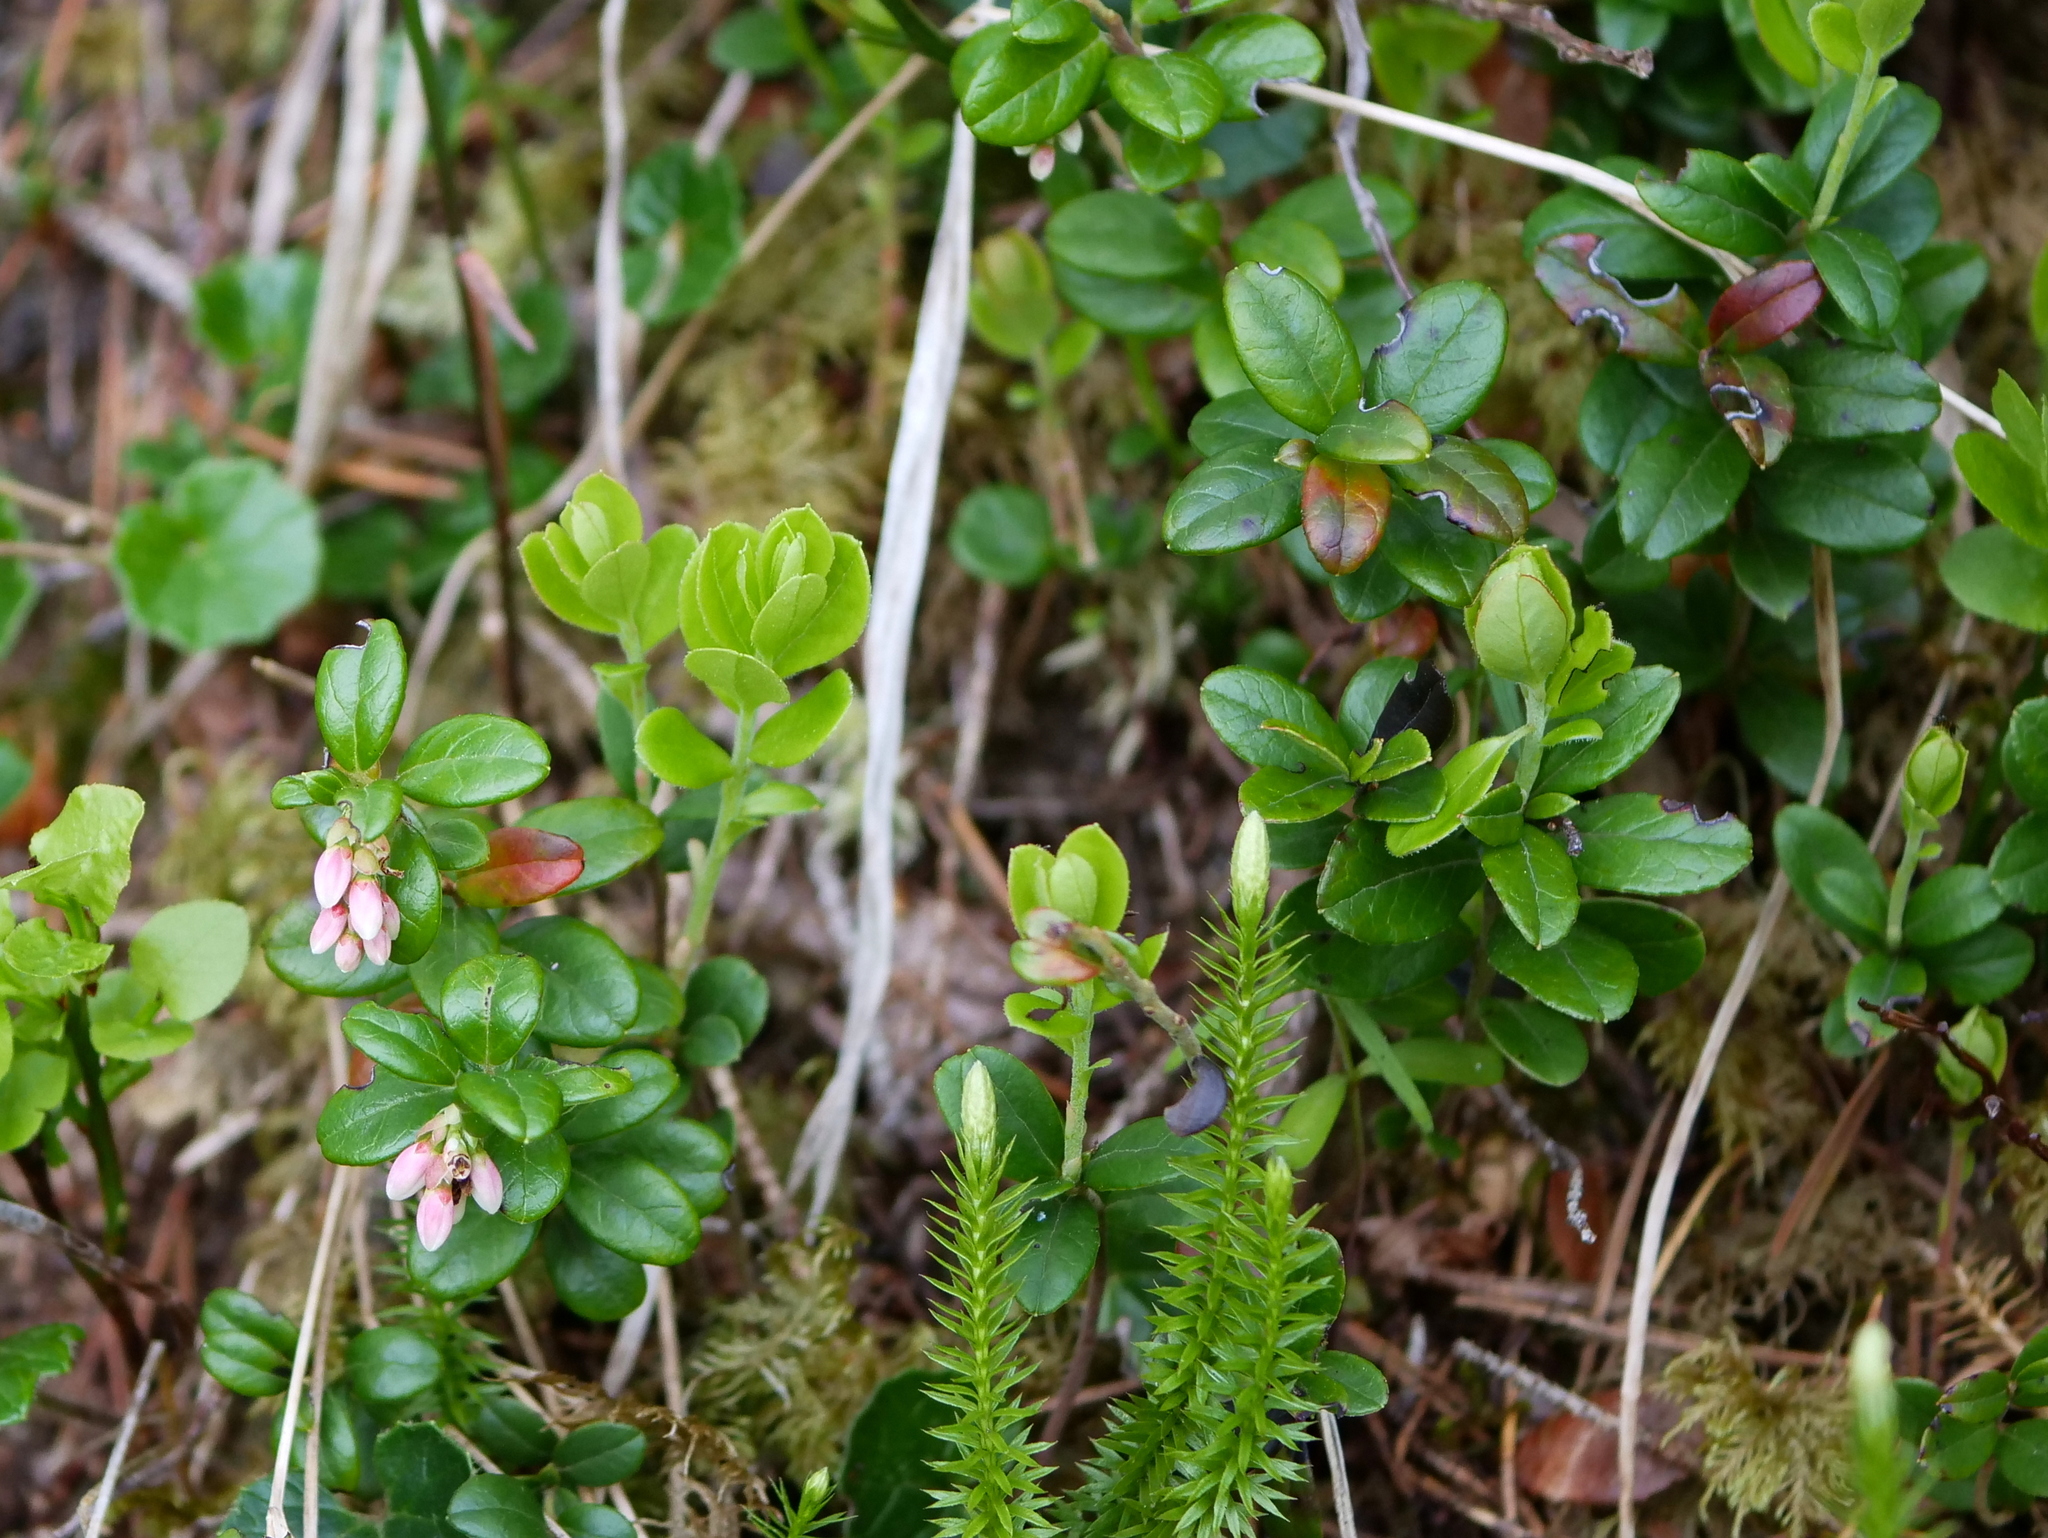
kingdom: Plantae
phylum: Tracheophyta
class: Magnoliopsida
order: Ericales
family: Ericaceae
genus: Vaccinium
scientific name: Vaccinium vitis-idaea
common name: Cowberry
